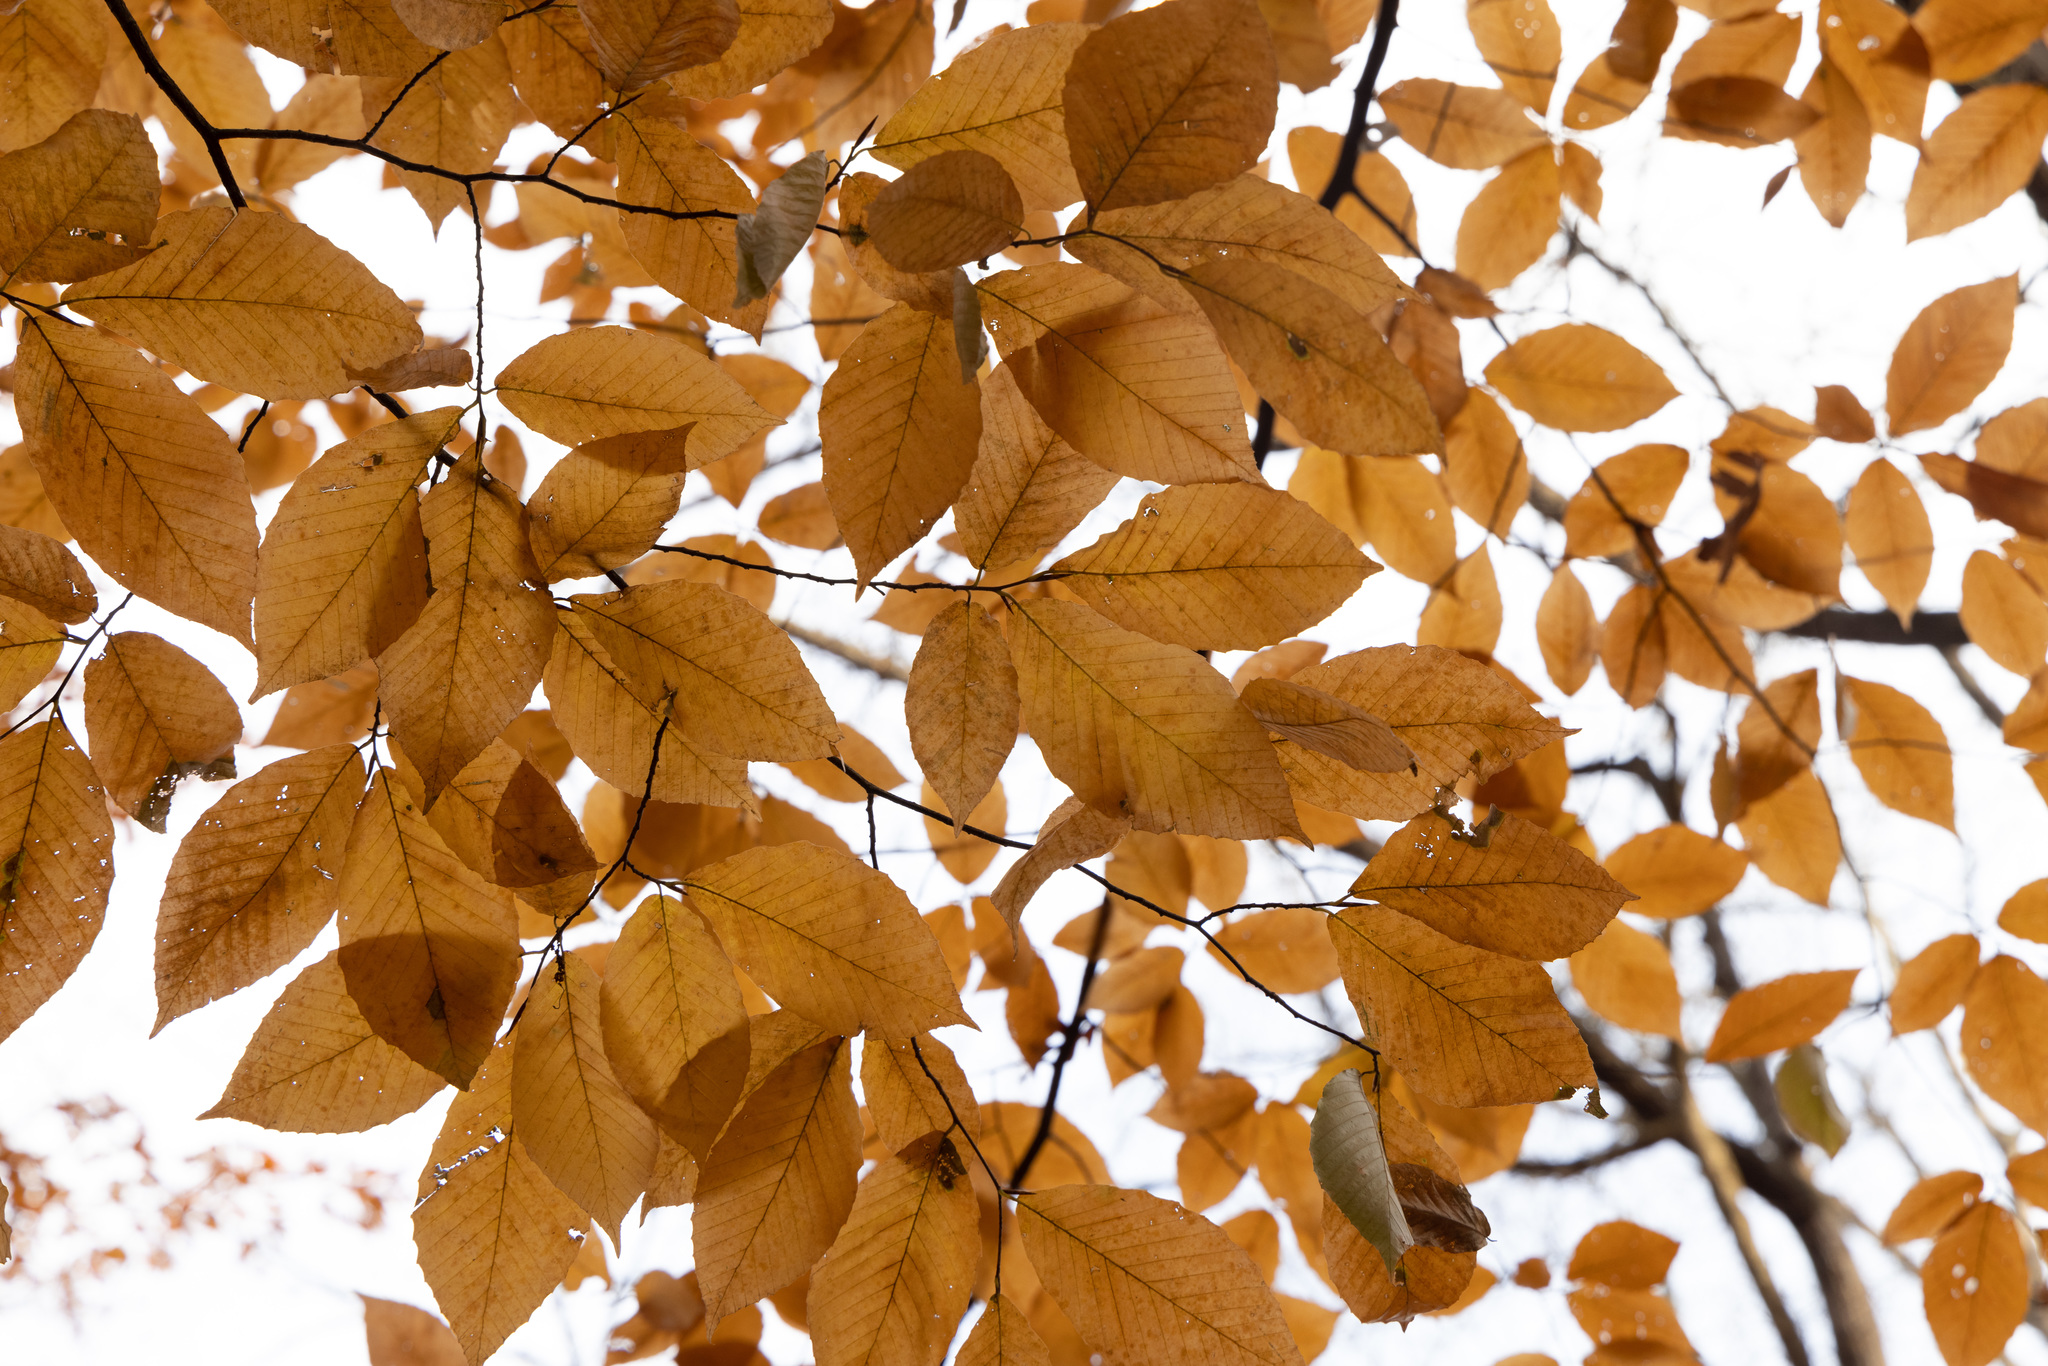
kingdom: Plantae
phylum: Tracheophyta
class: Magnoliopsida
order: Fagales
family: Fagaceae
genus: Fagus
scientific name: Fagus grandifolia
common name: American beech
